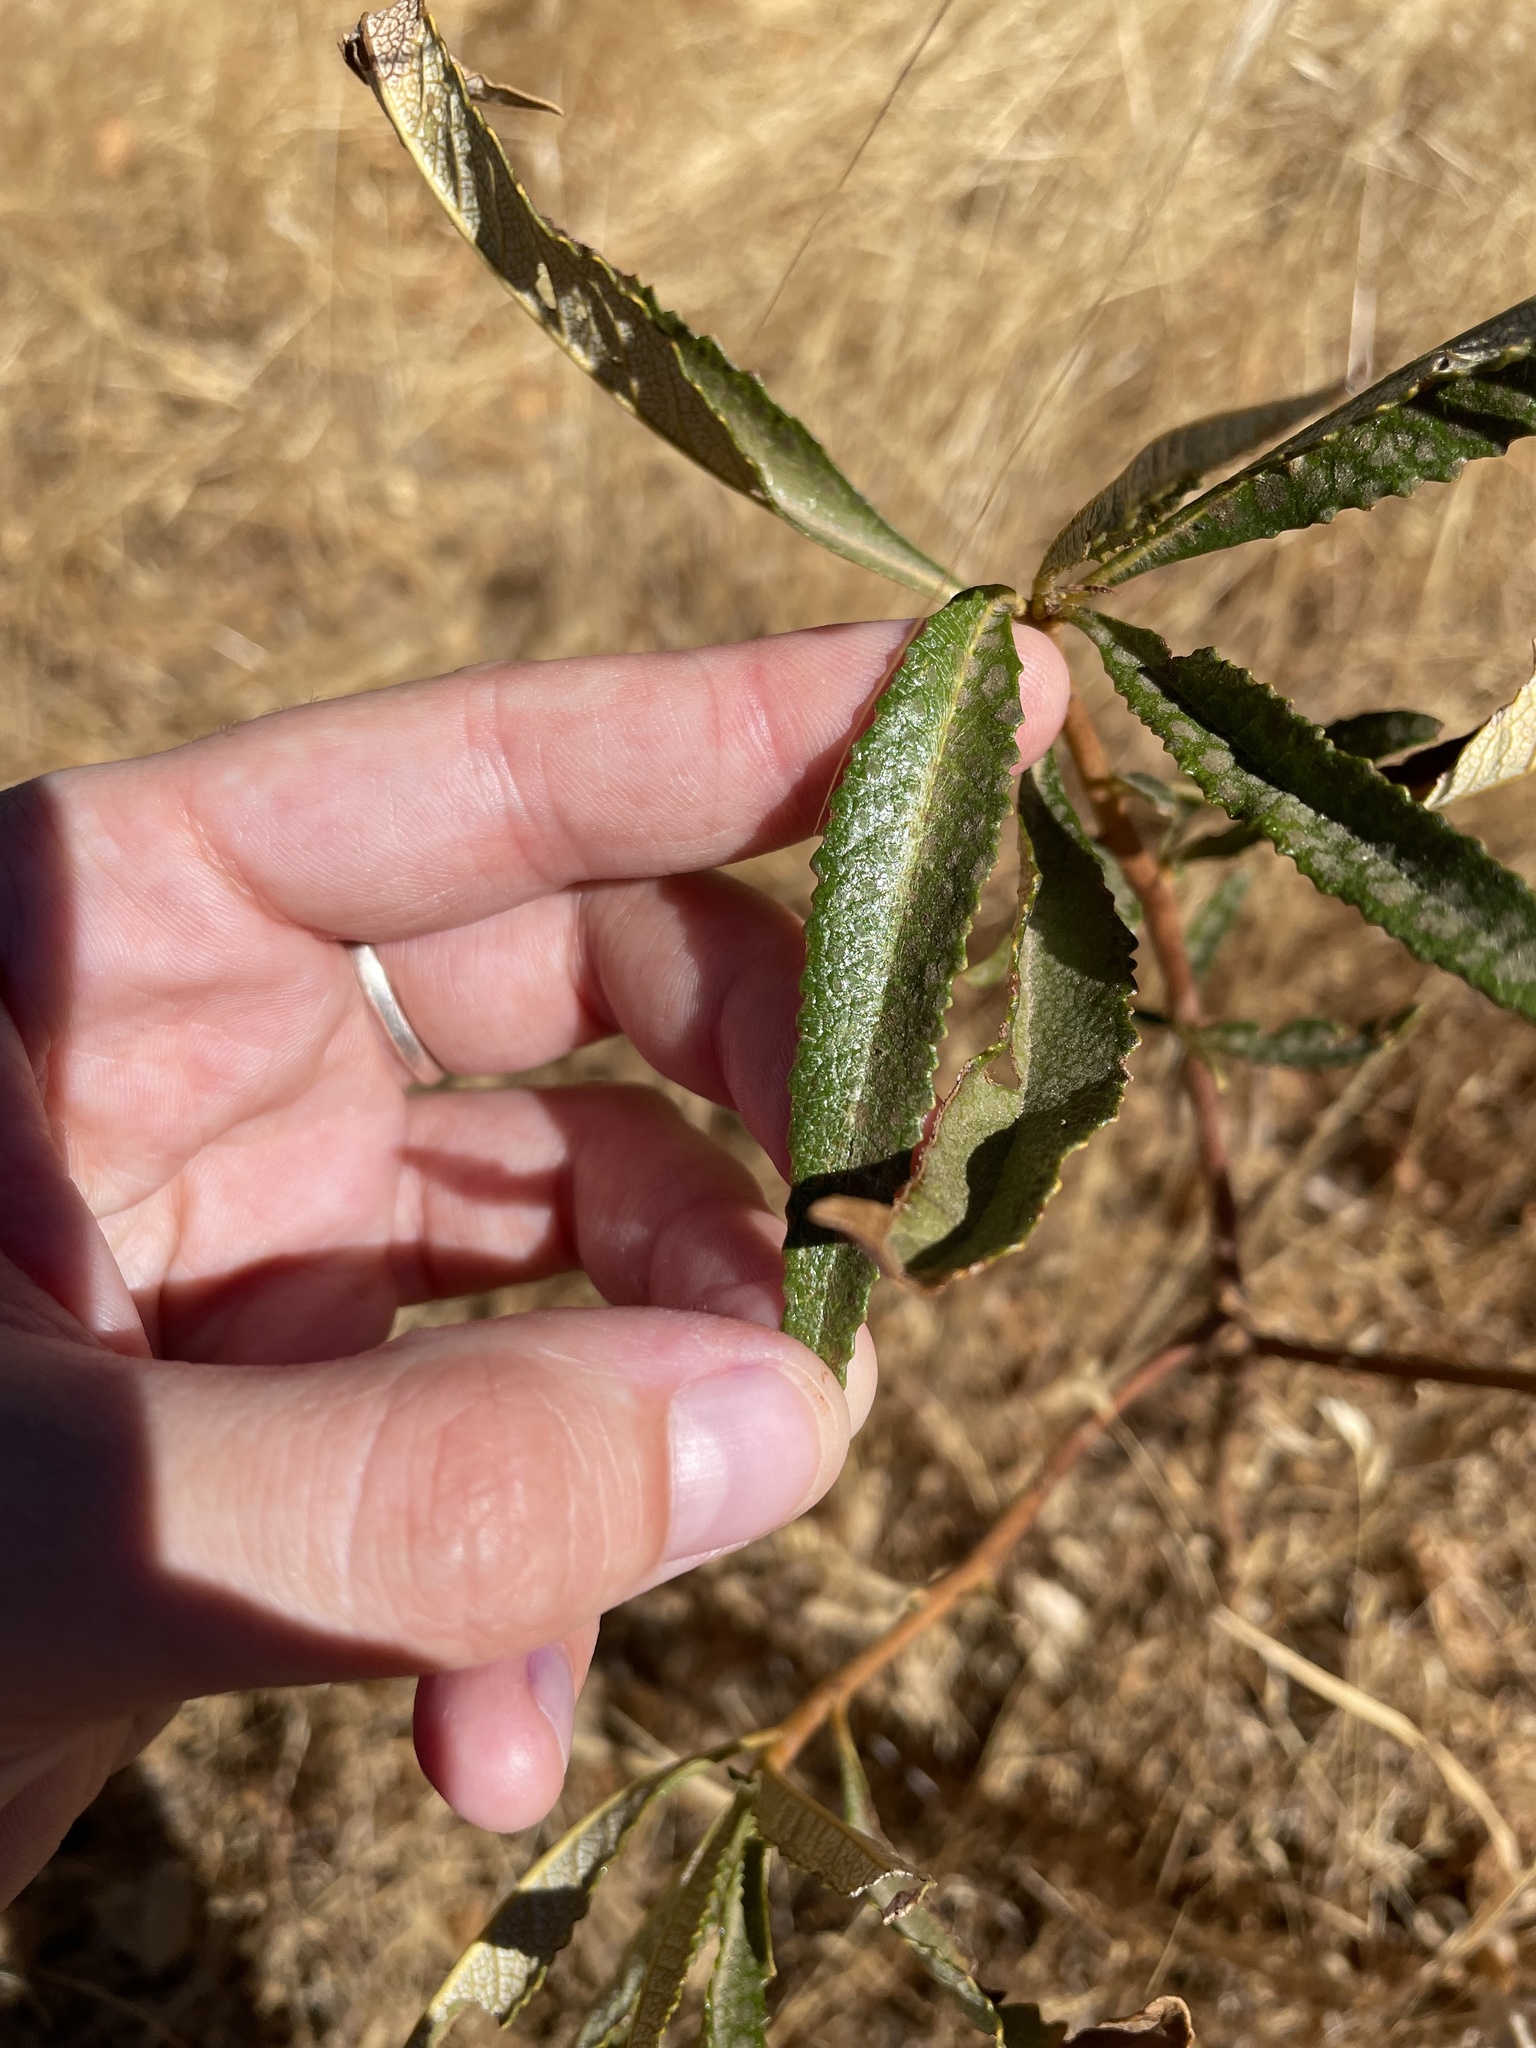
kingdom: Plantae
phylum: Tracheophyta
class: Magnoliopsida
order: Boraginales
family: Namaceae
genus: Eriodictyon
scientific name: Eriodictyon californicum
